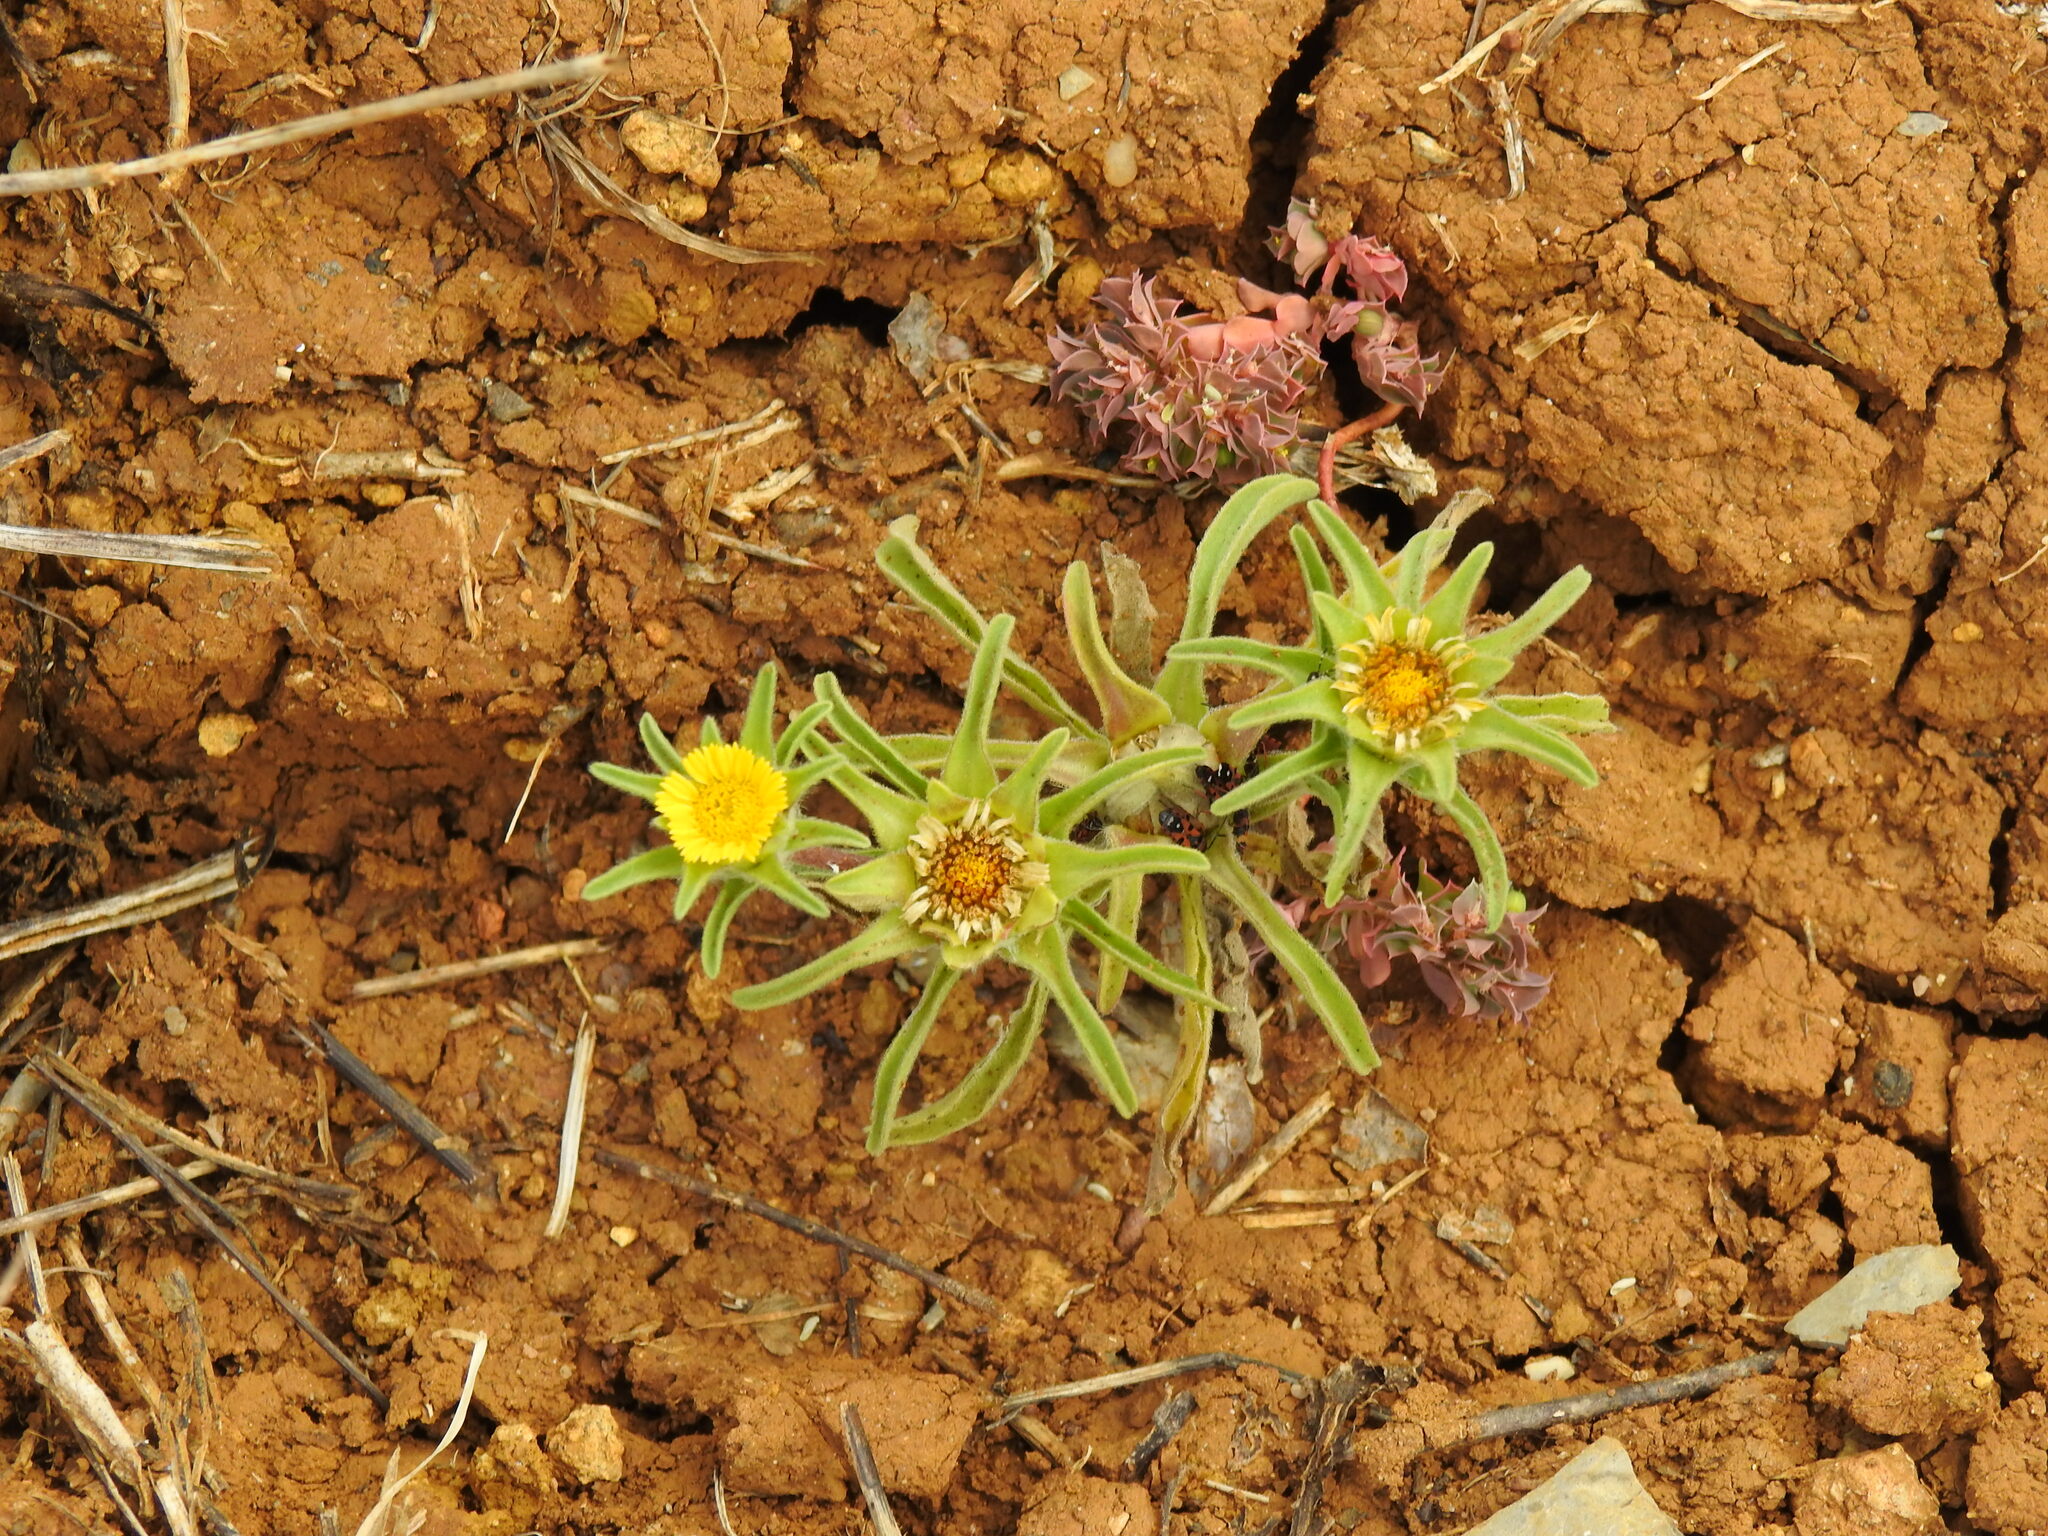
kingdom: Plantae
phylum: Tracheophyta
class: Magnoliopsida
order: Asterales
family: Asteraceae
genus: Asteriscus
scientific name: Asteriscus aquaticus
